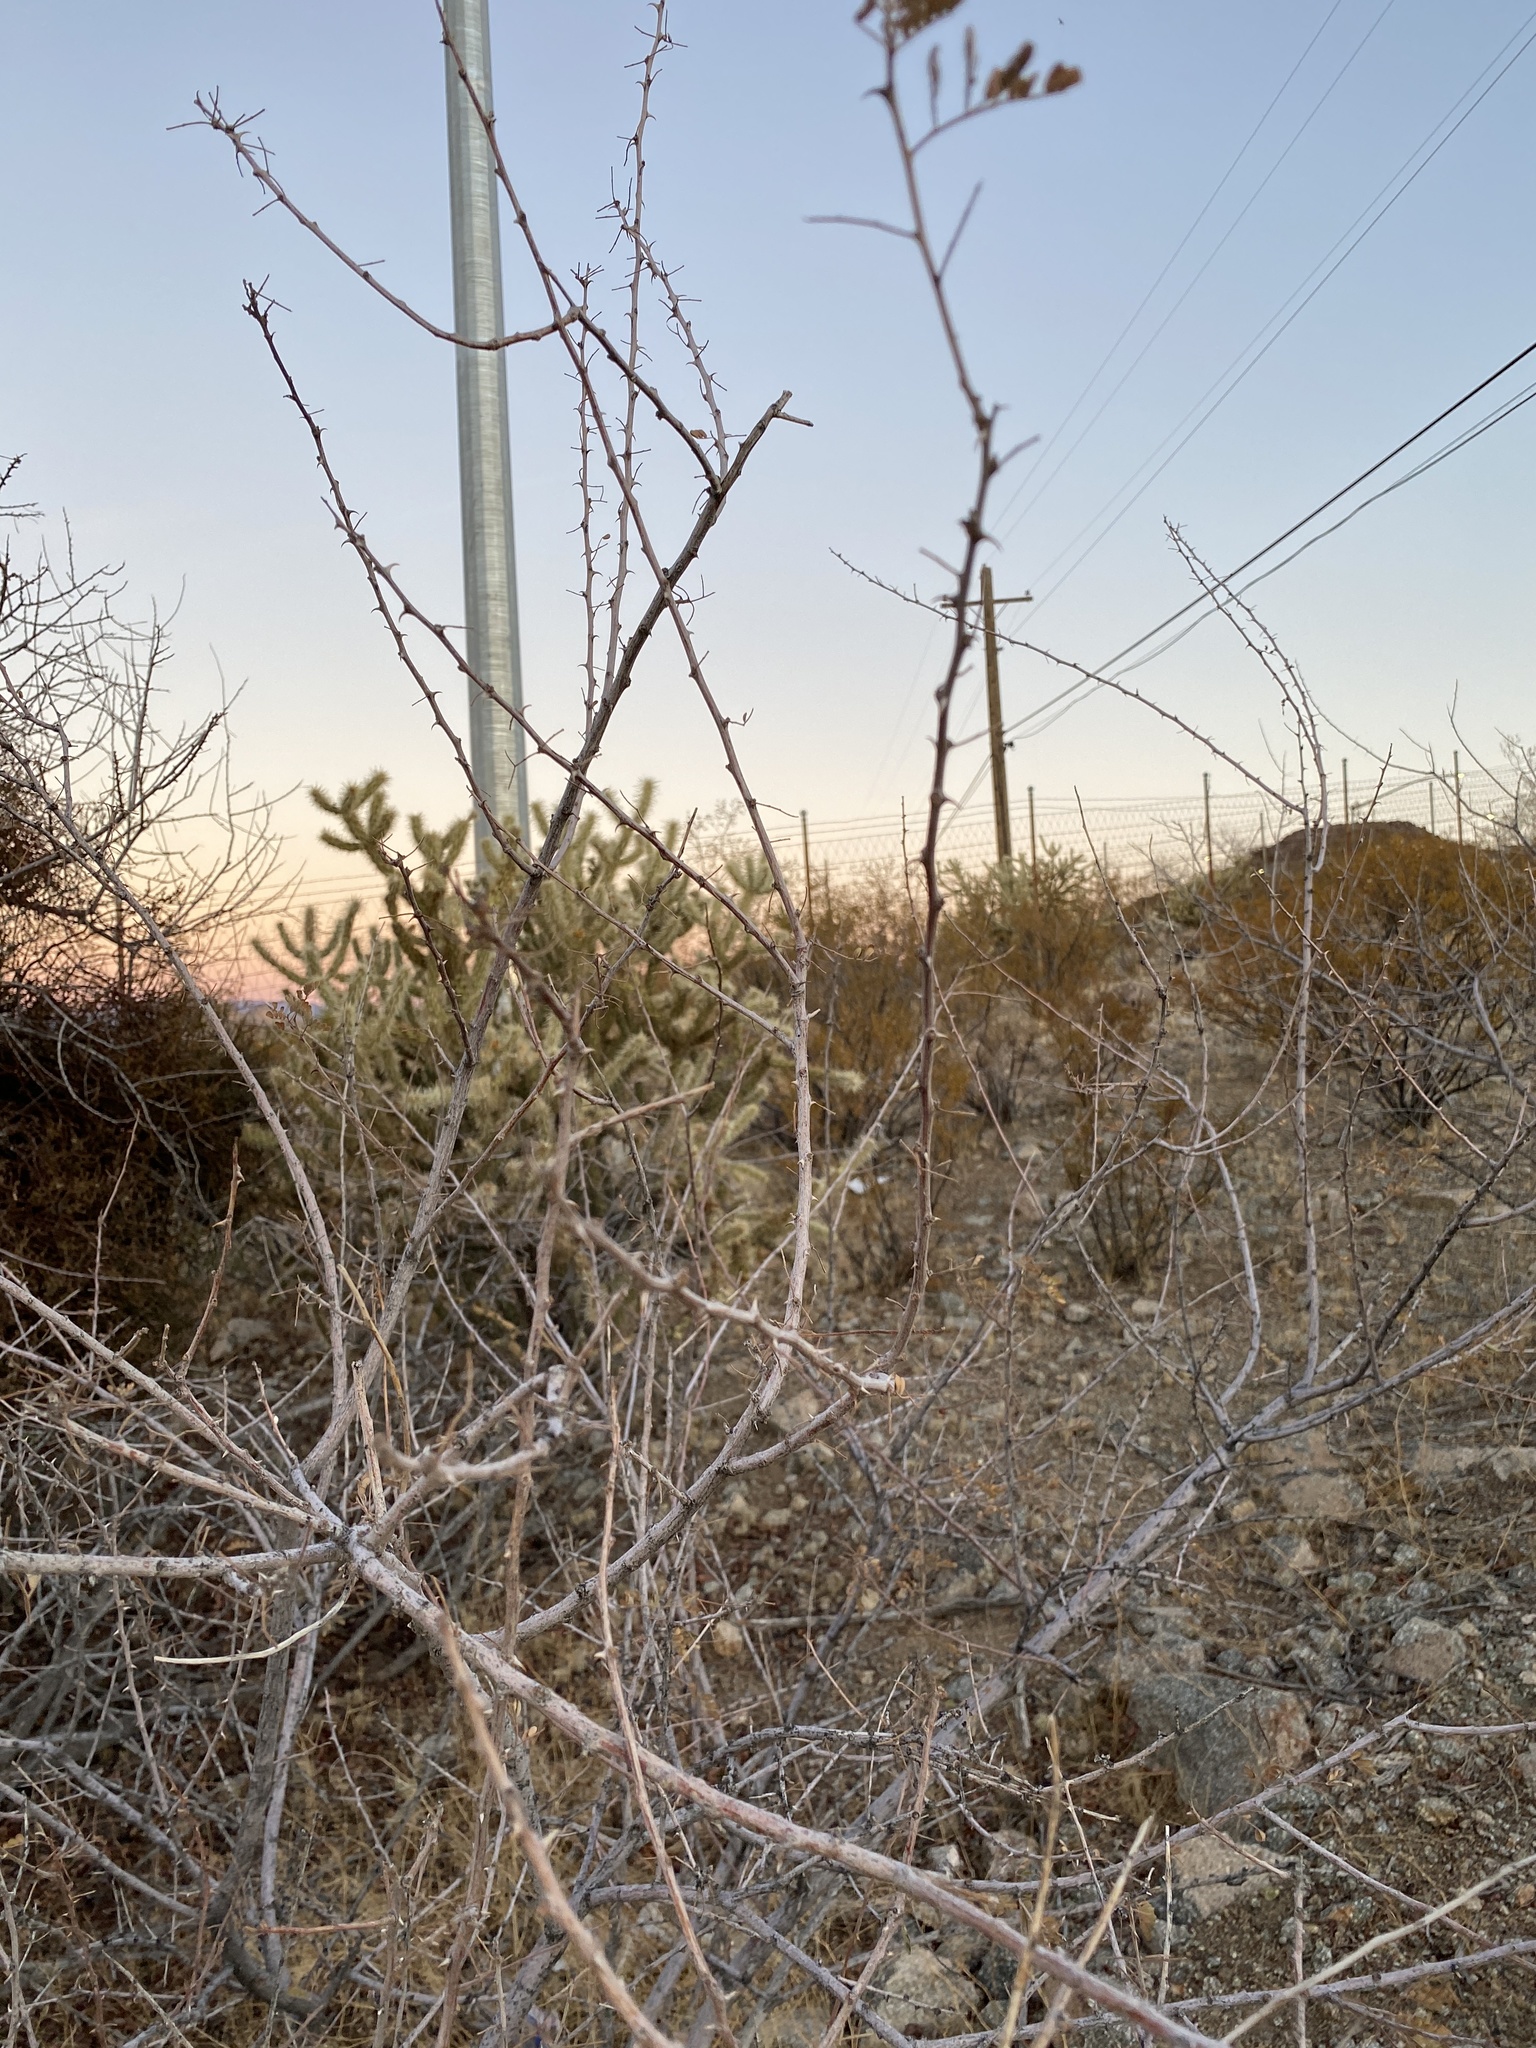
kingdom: Plantae
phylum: Tracheophyta
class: Magnoliopsida
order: Fabales
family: Fabaceae
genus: Senegalia
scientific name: Senegalia greggii
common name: Texas-mimosa
